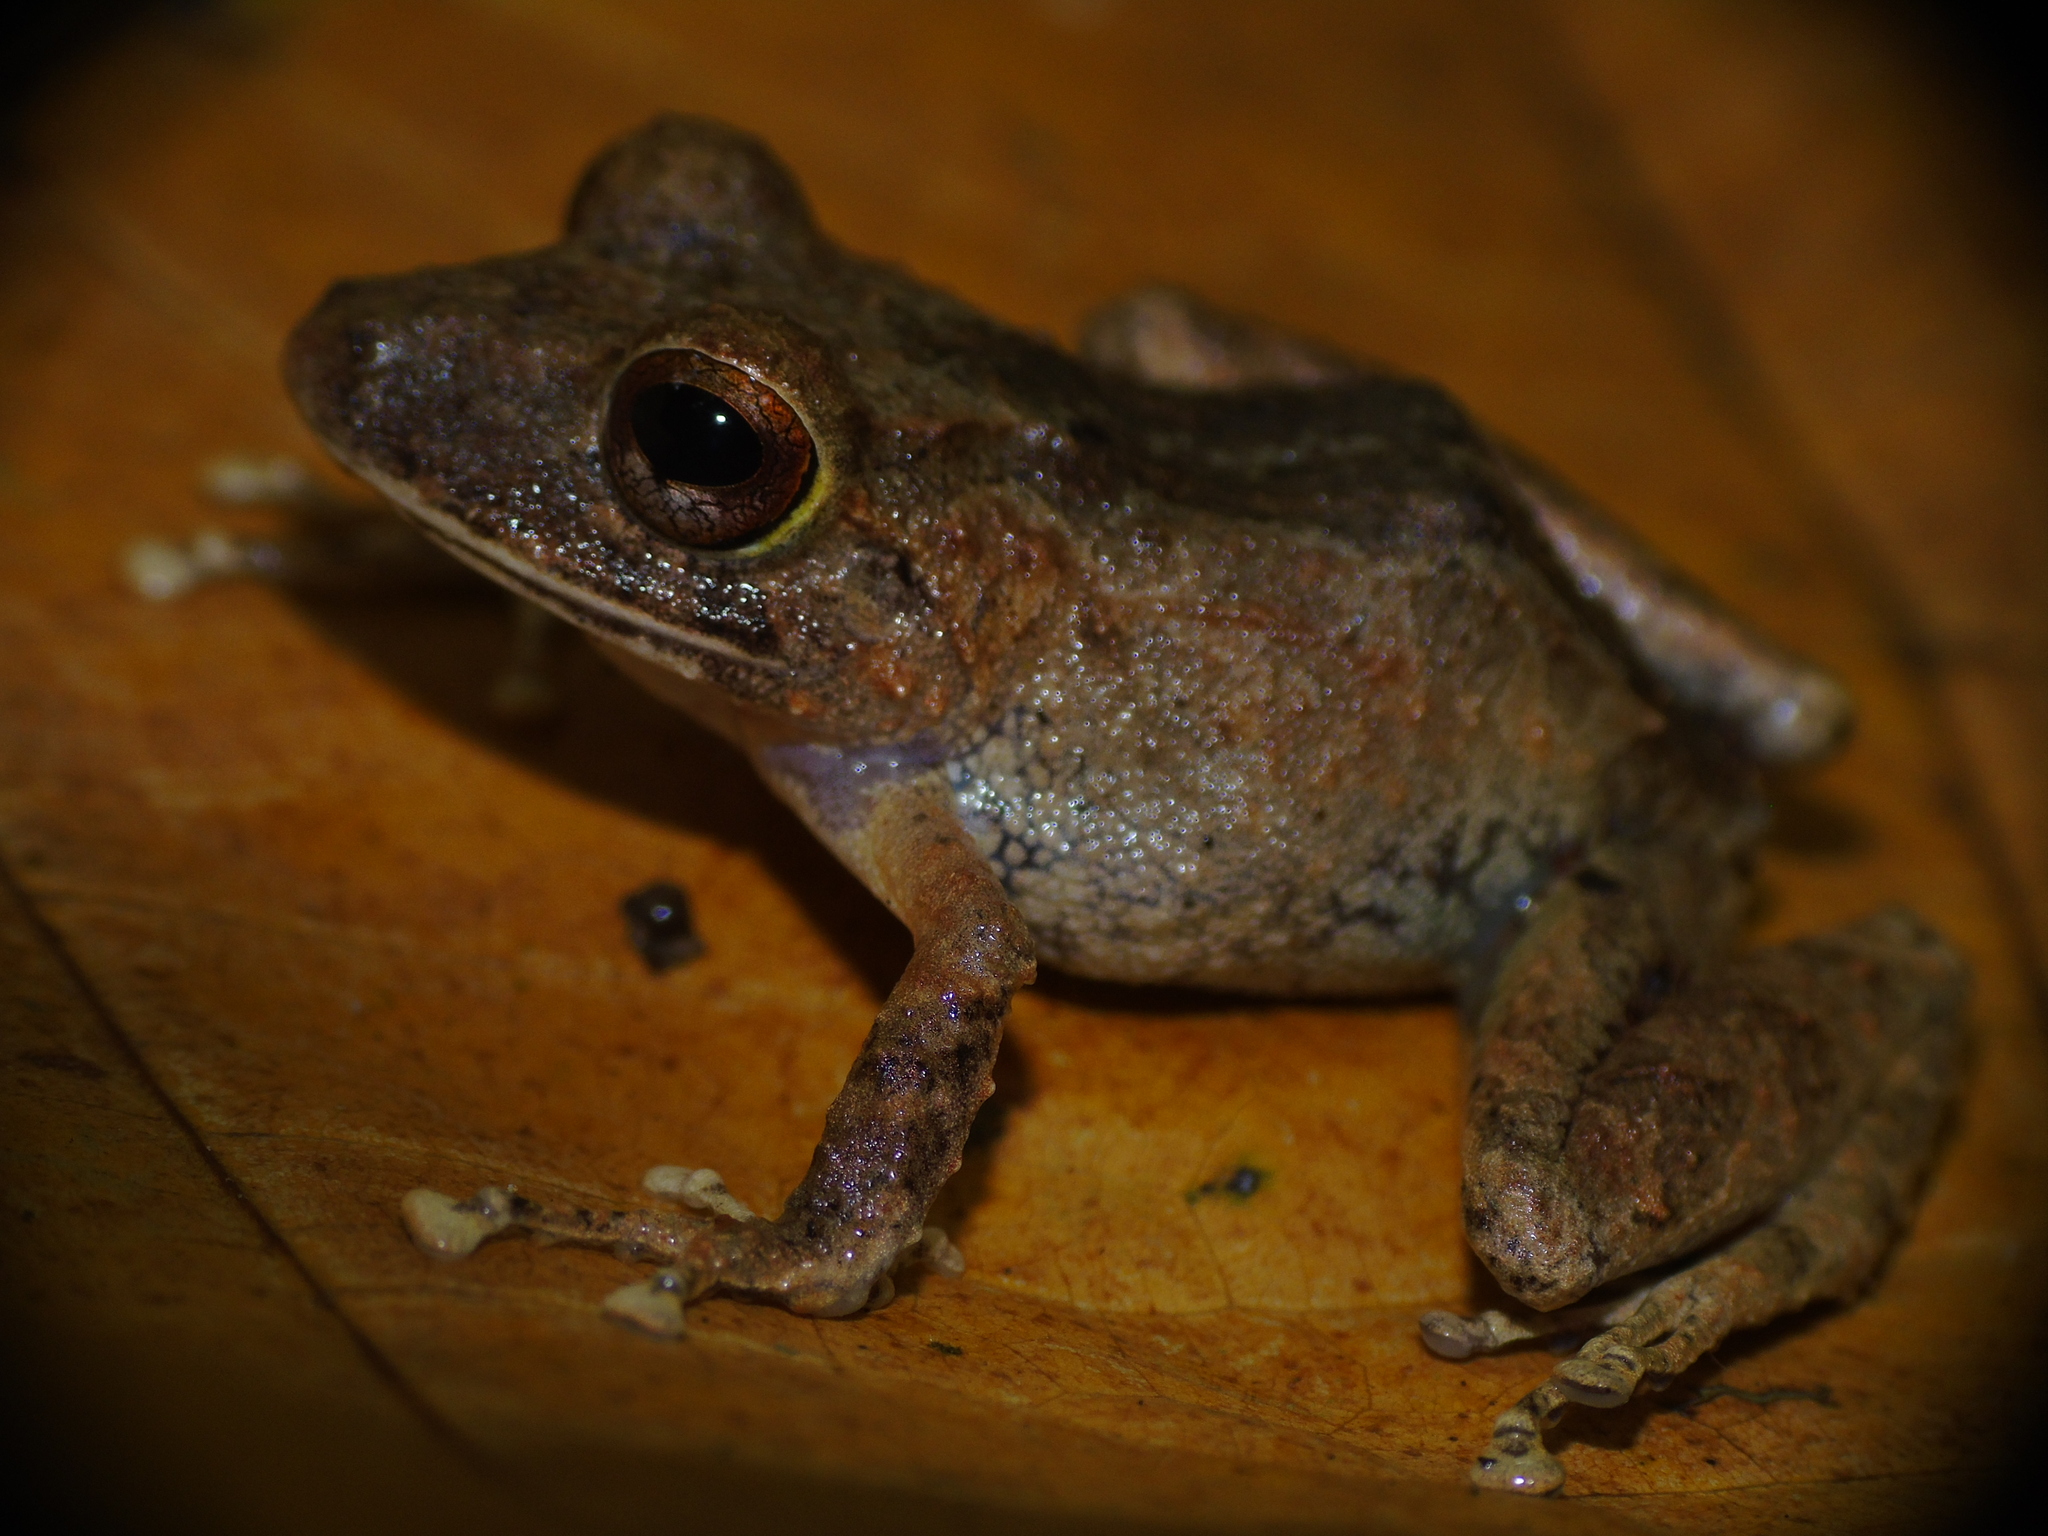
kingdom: Animalia
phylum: Chordata
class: Amphibia
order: Anura
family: Craugastoridae
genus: Pristimantis
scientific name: Pristimantis cerasinus
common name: Limon robber frog
